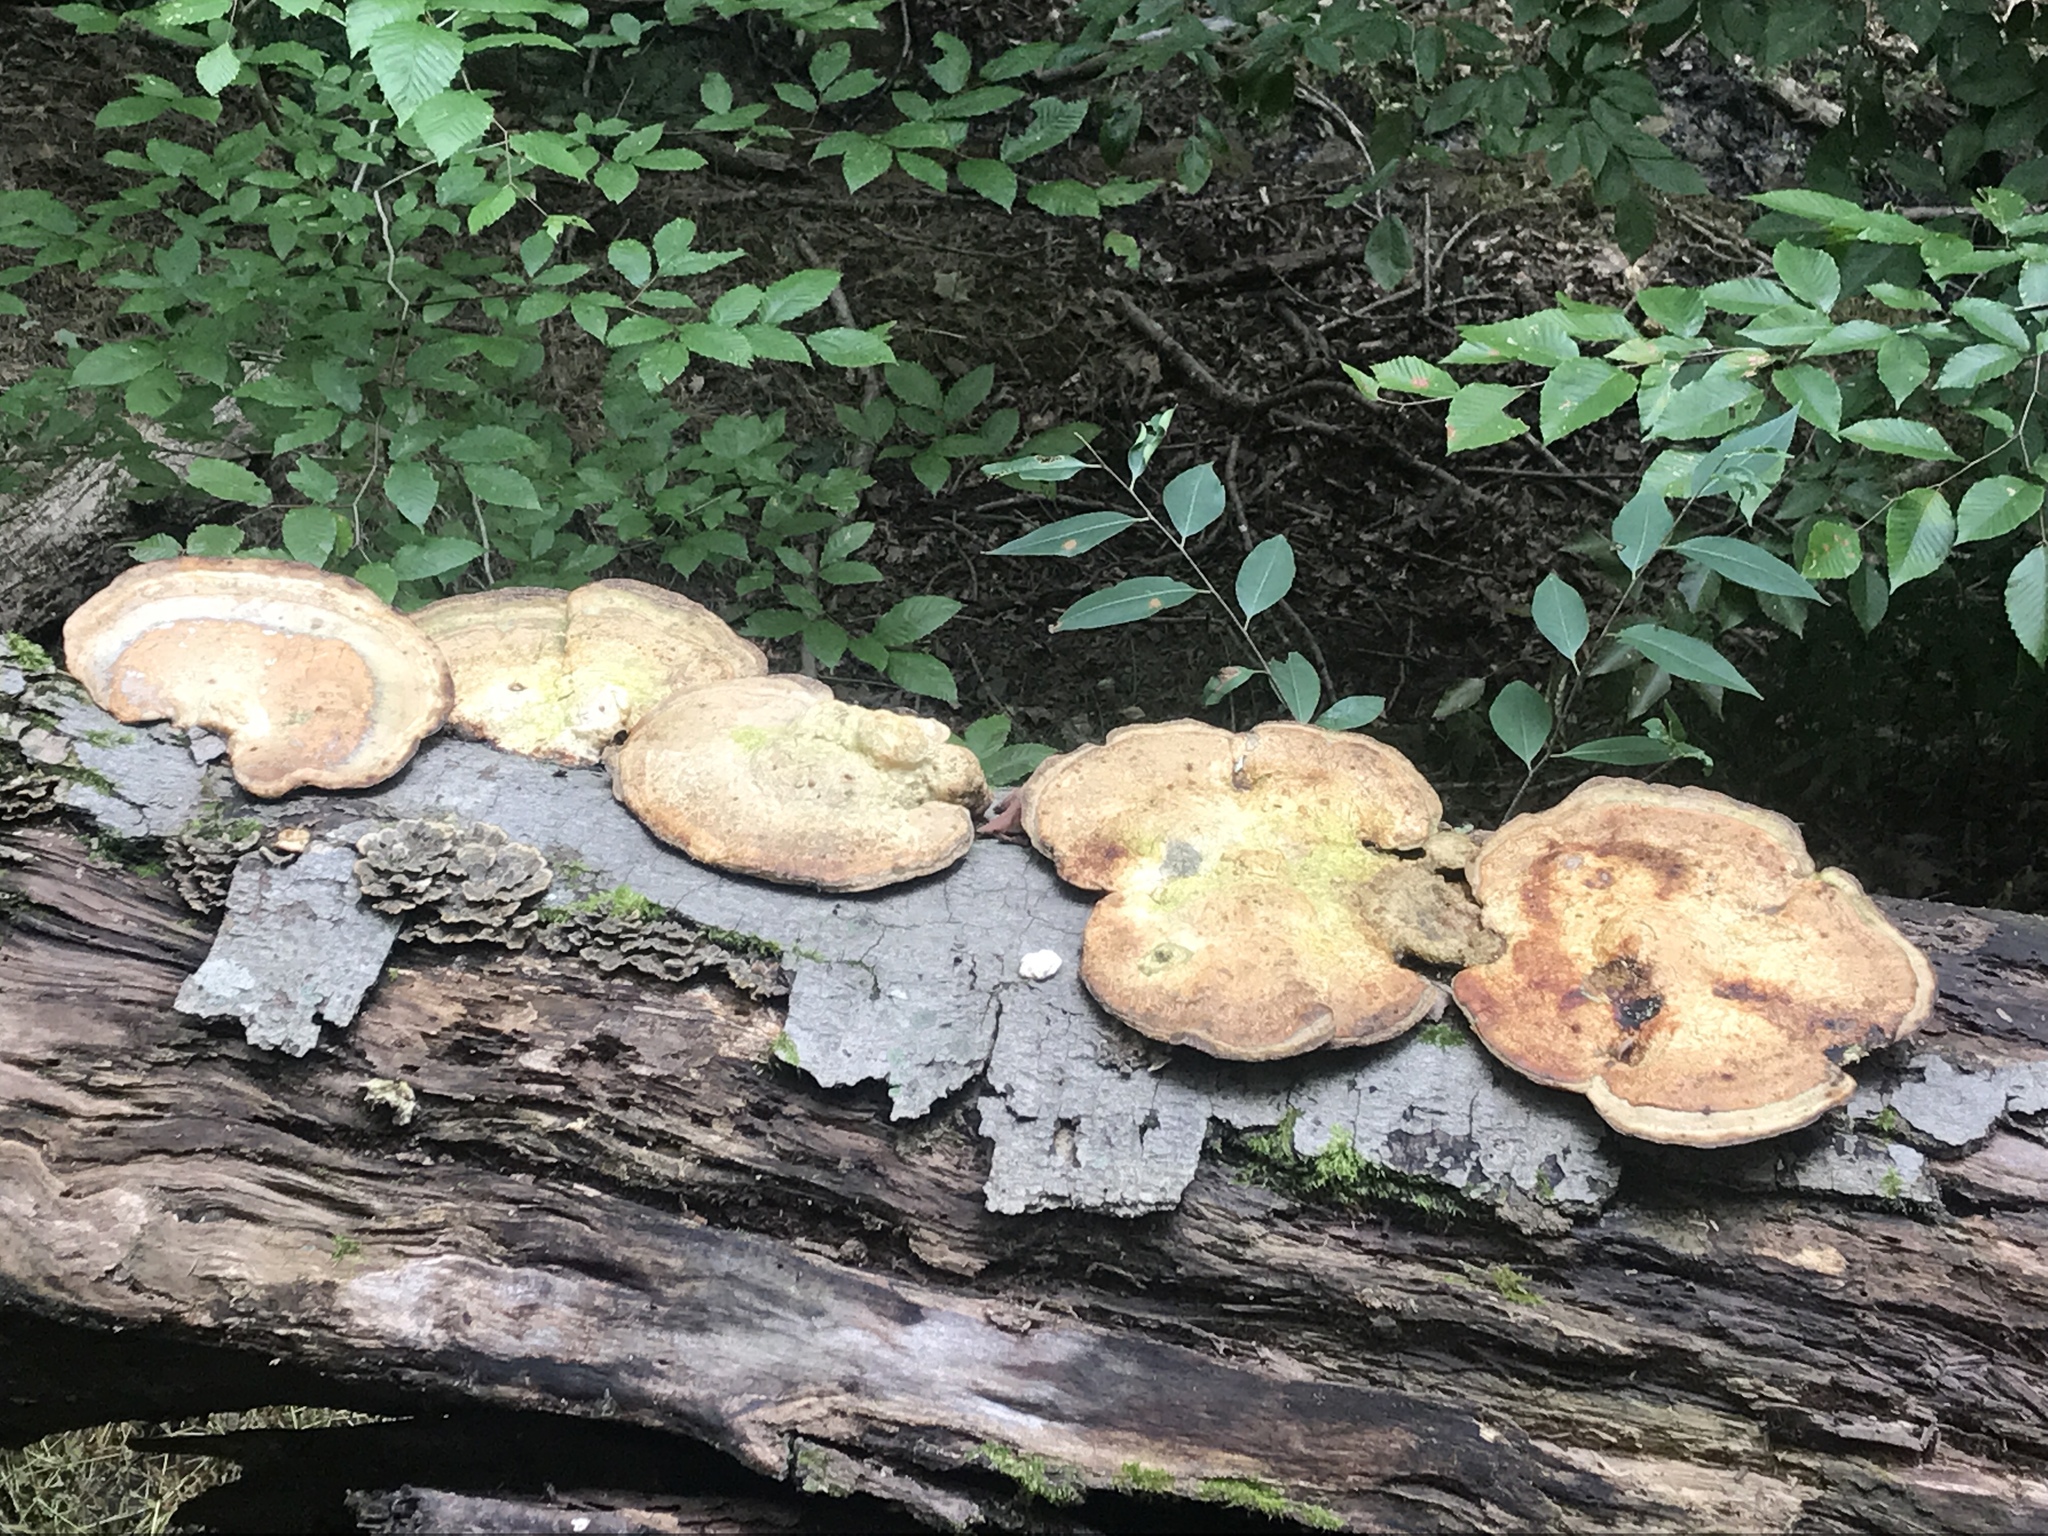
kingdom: Fungi
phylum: Basidiomycota
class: Agaricomycetes
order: Polyporales
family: Polyporaceae
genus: Trametes
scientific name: Trametes
